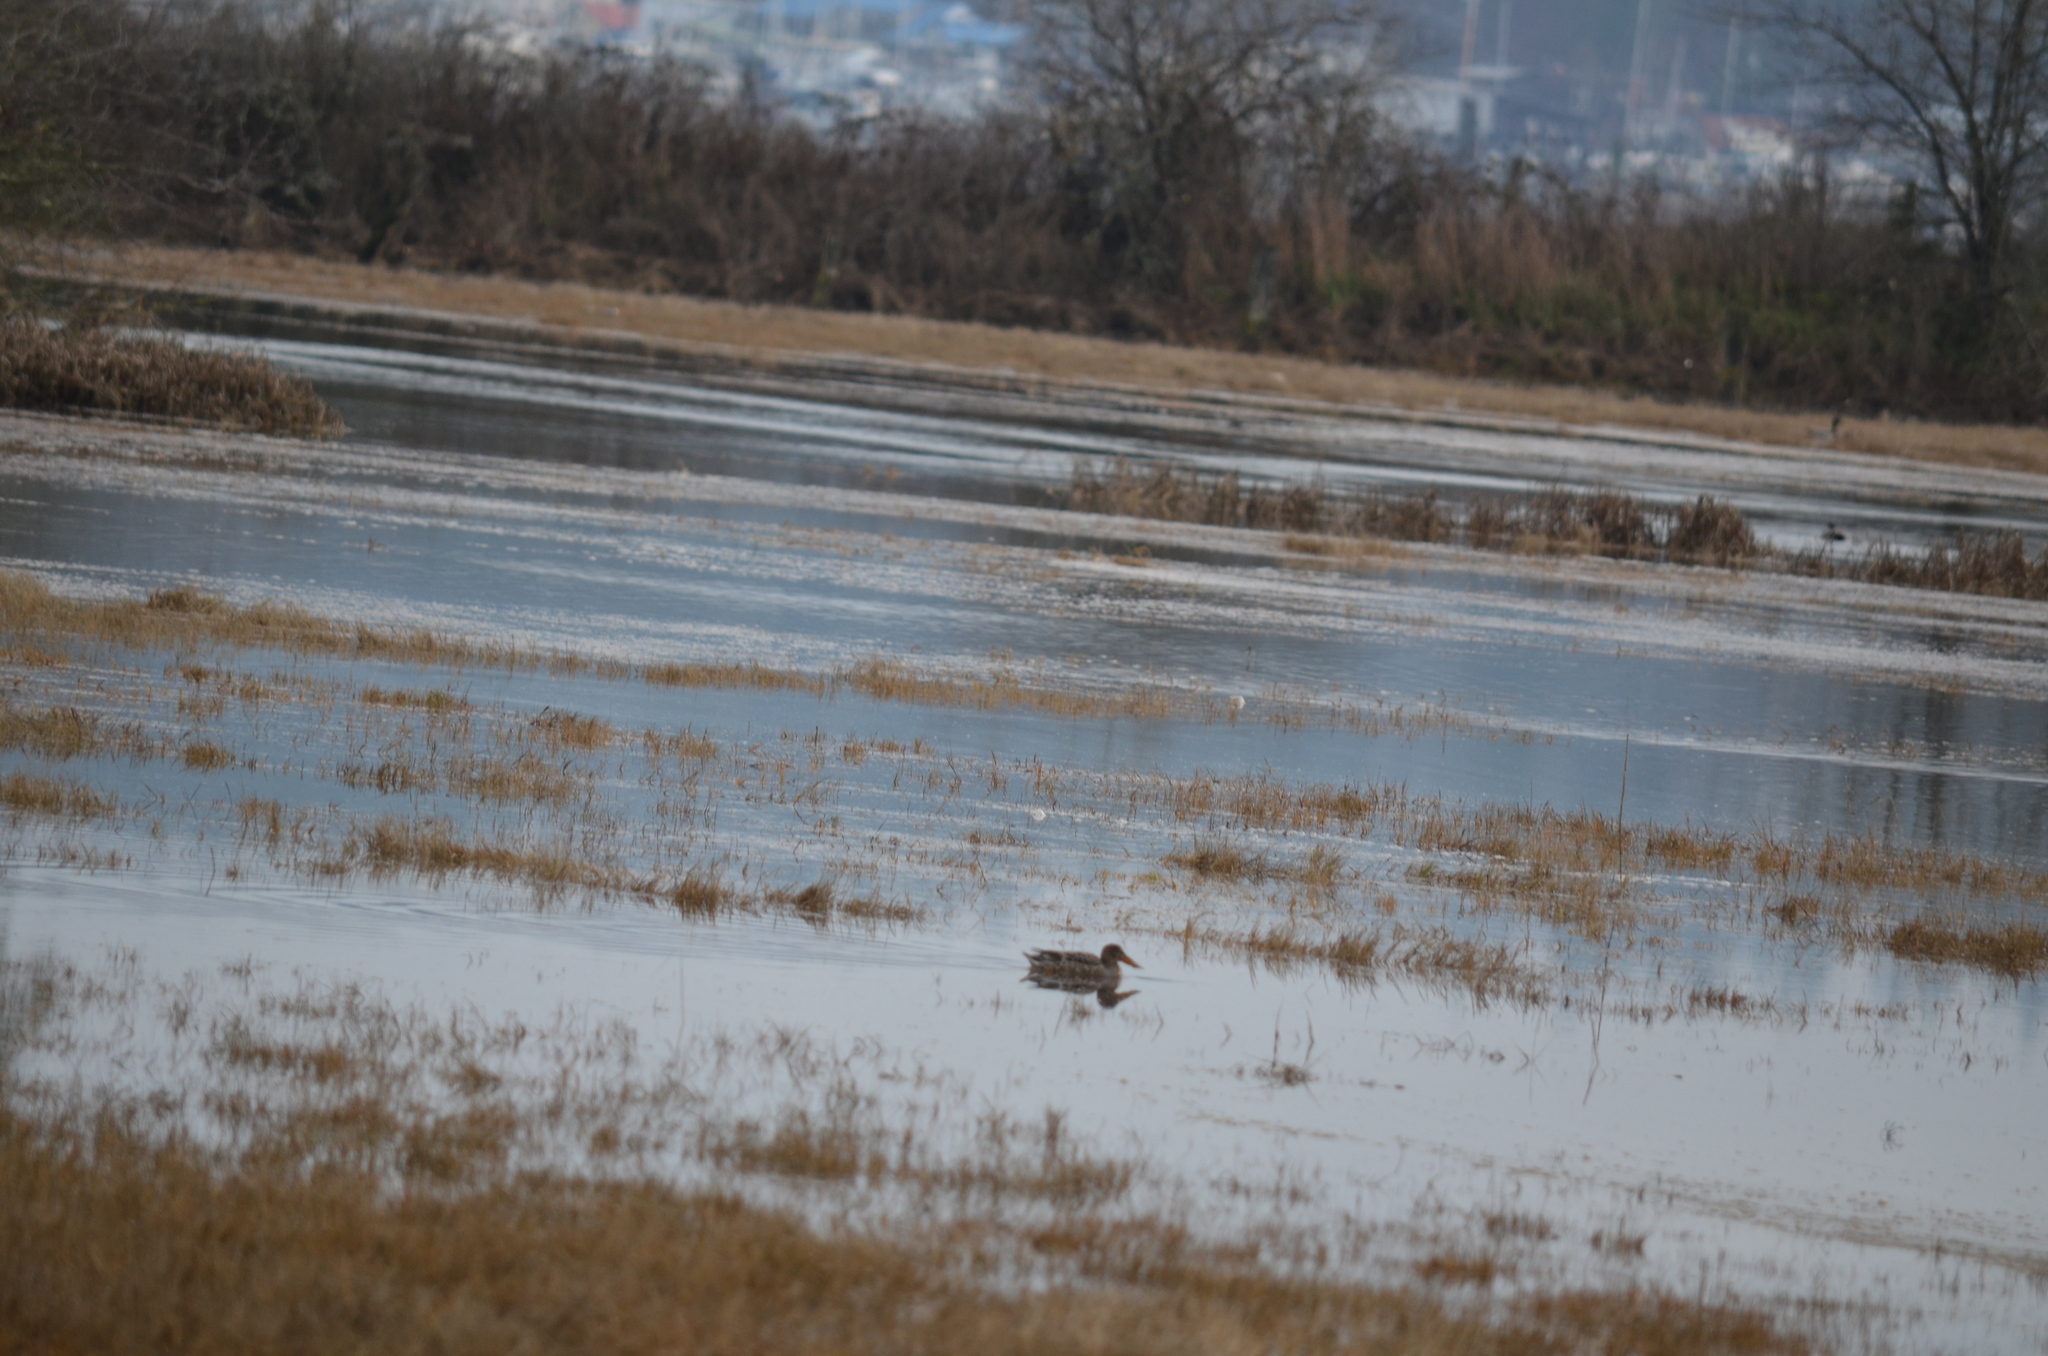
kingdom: Animalia
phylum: Chordata
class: Aves
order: Anseriformes
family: Anatidae
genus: Spatula
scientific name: Spatula clypeata
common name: Northern shoveler
